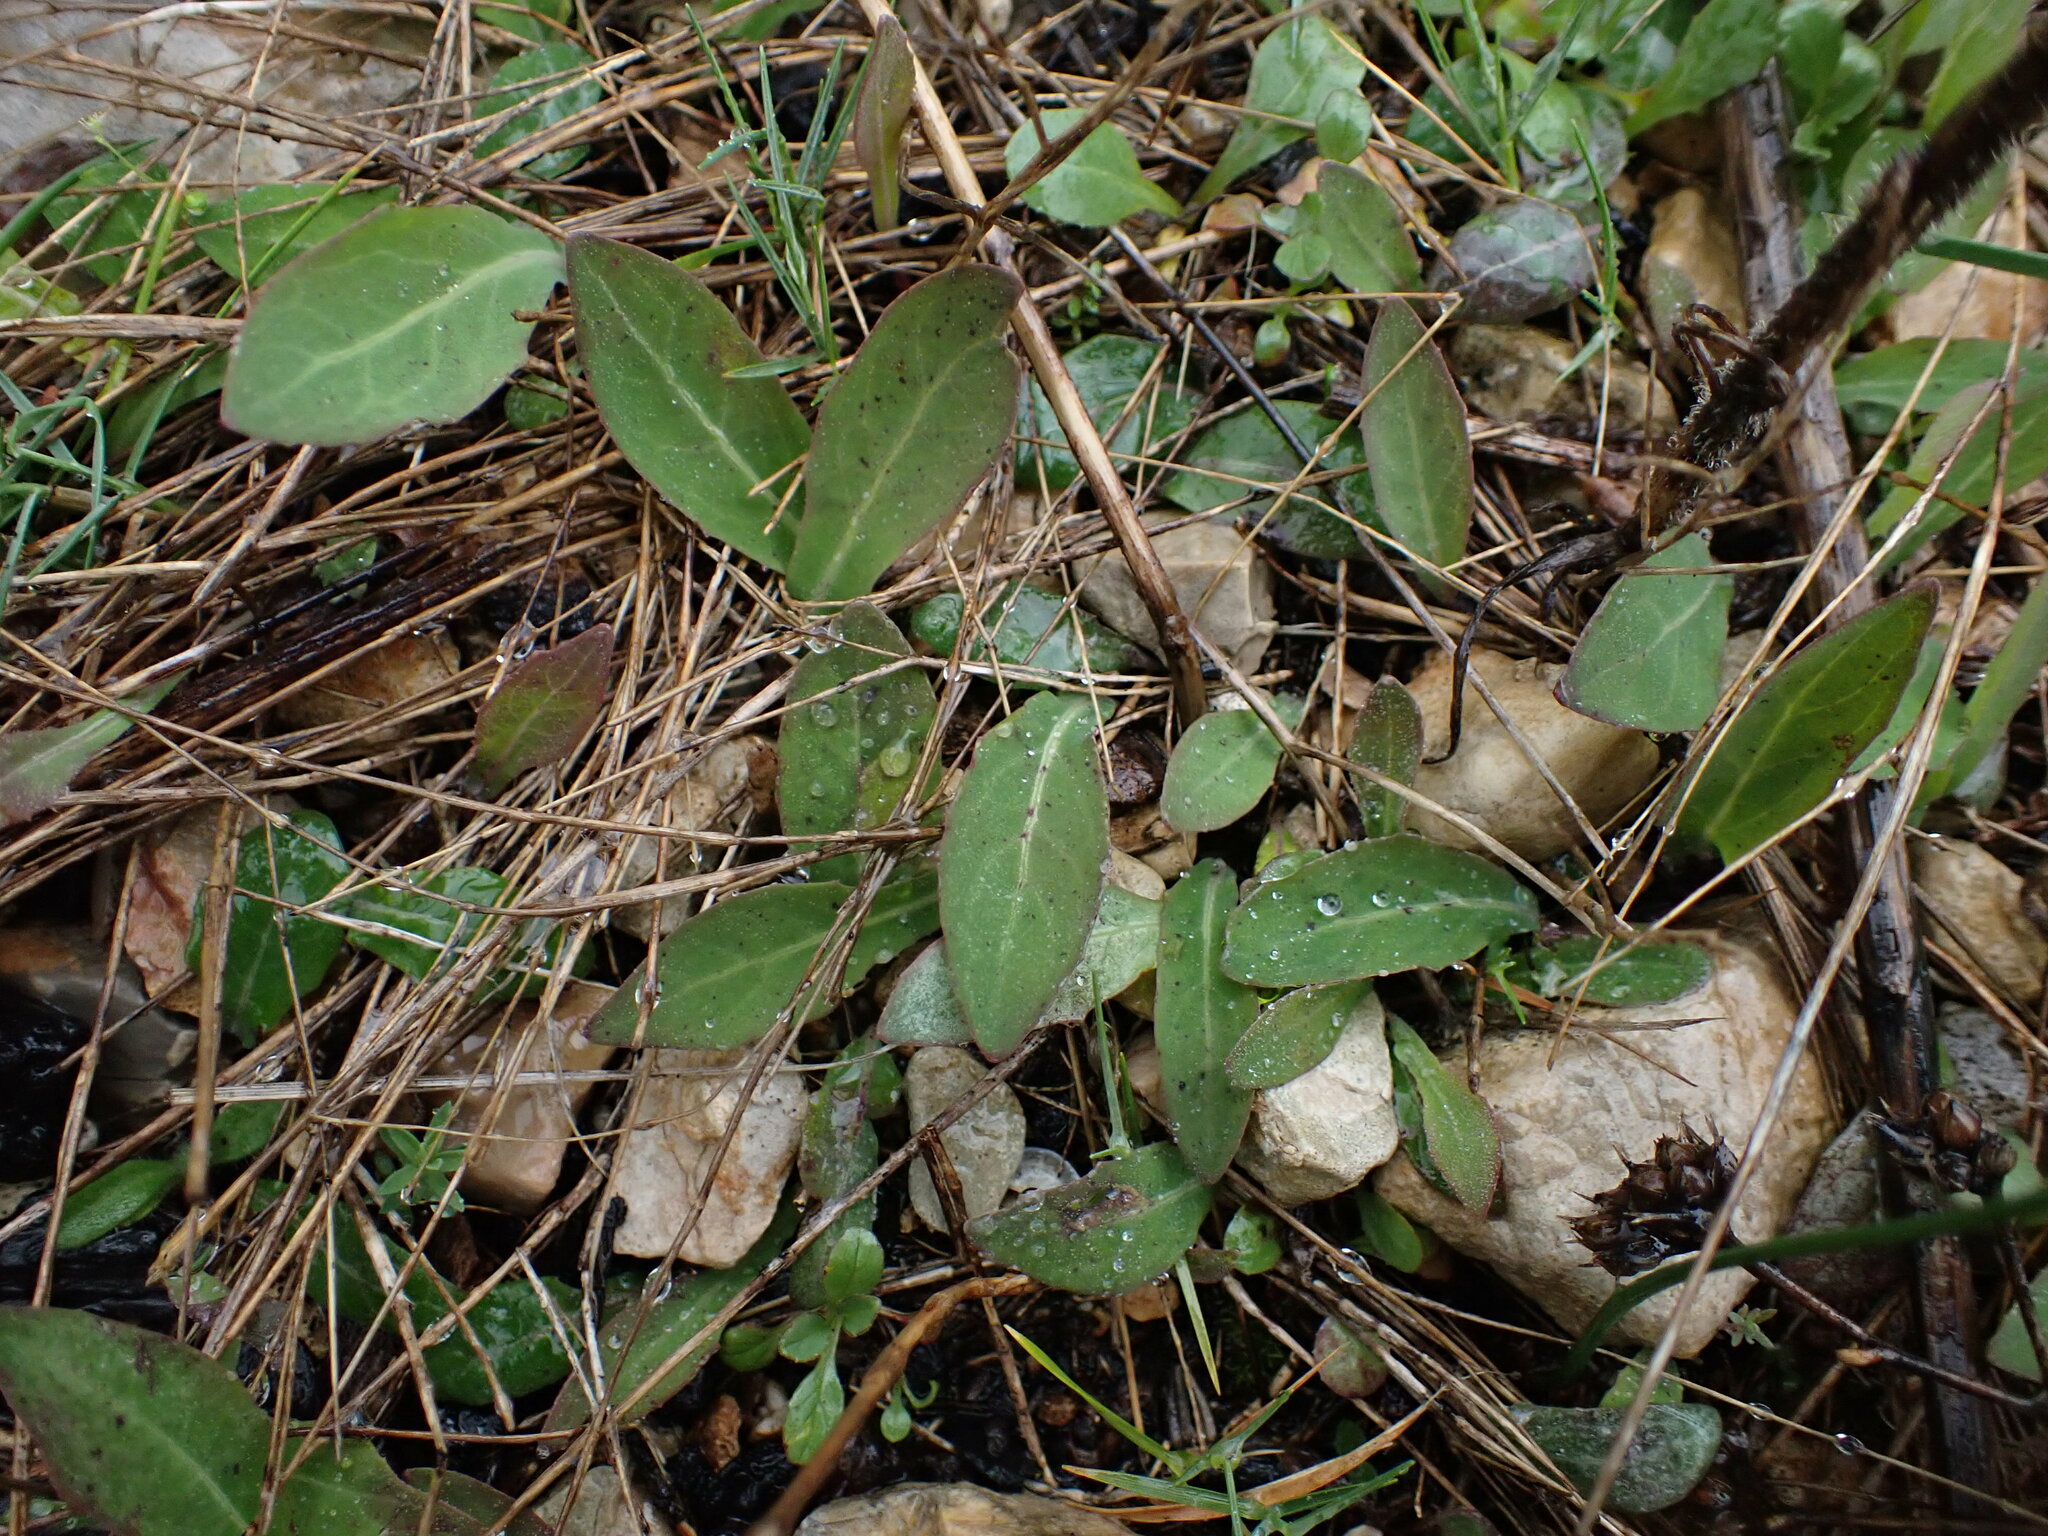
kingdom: Plantae
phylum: Tracheophyta
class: Magnoliopsida
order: Asterales
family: Asteraceae
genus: Aetheorhiza
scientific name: Aetheorhiza bulbosa
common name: Tuberous hawk's-beard
